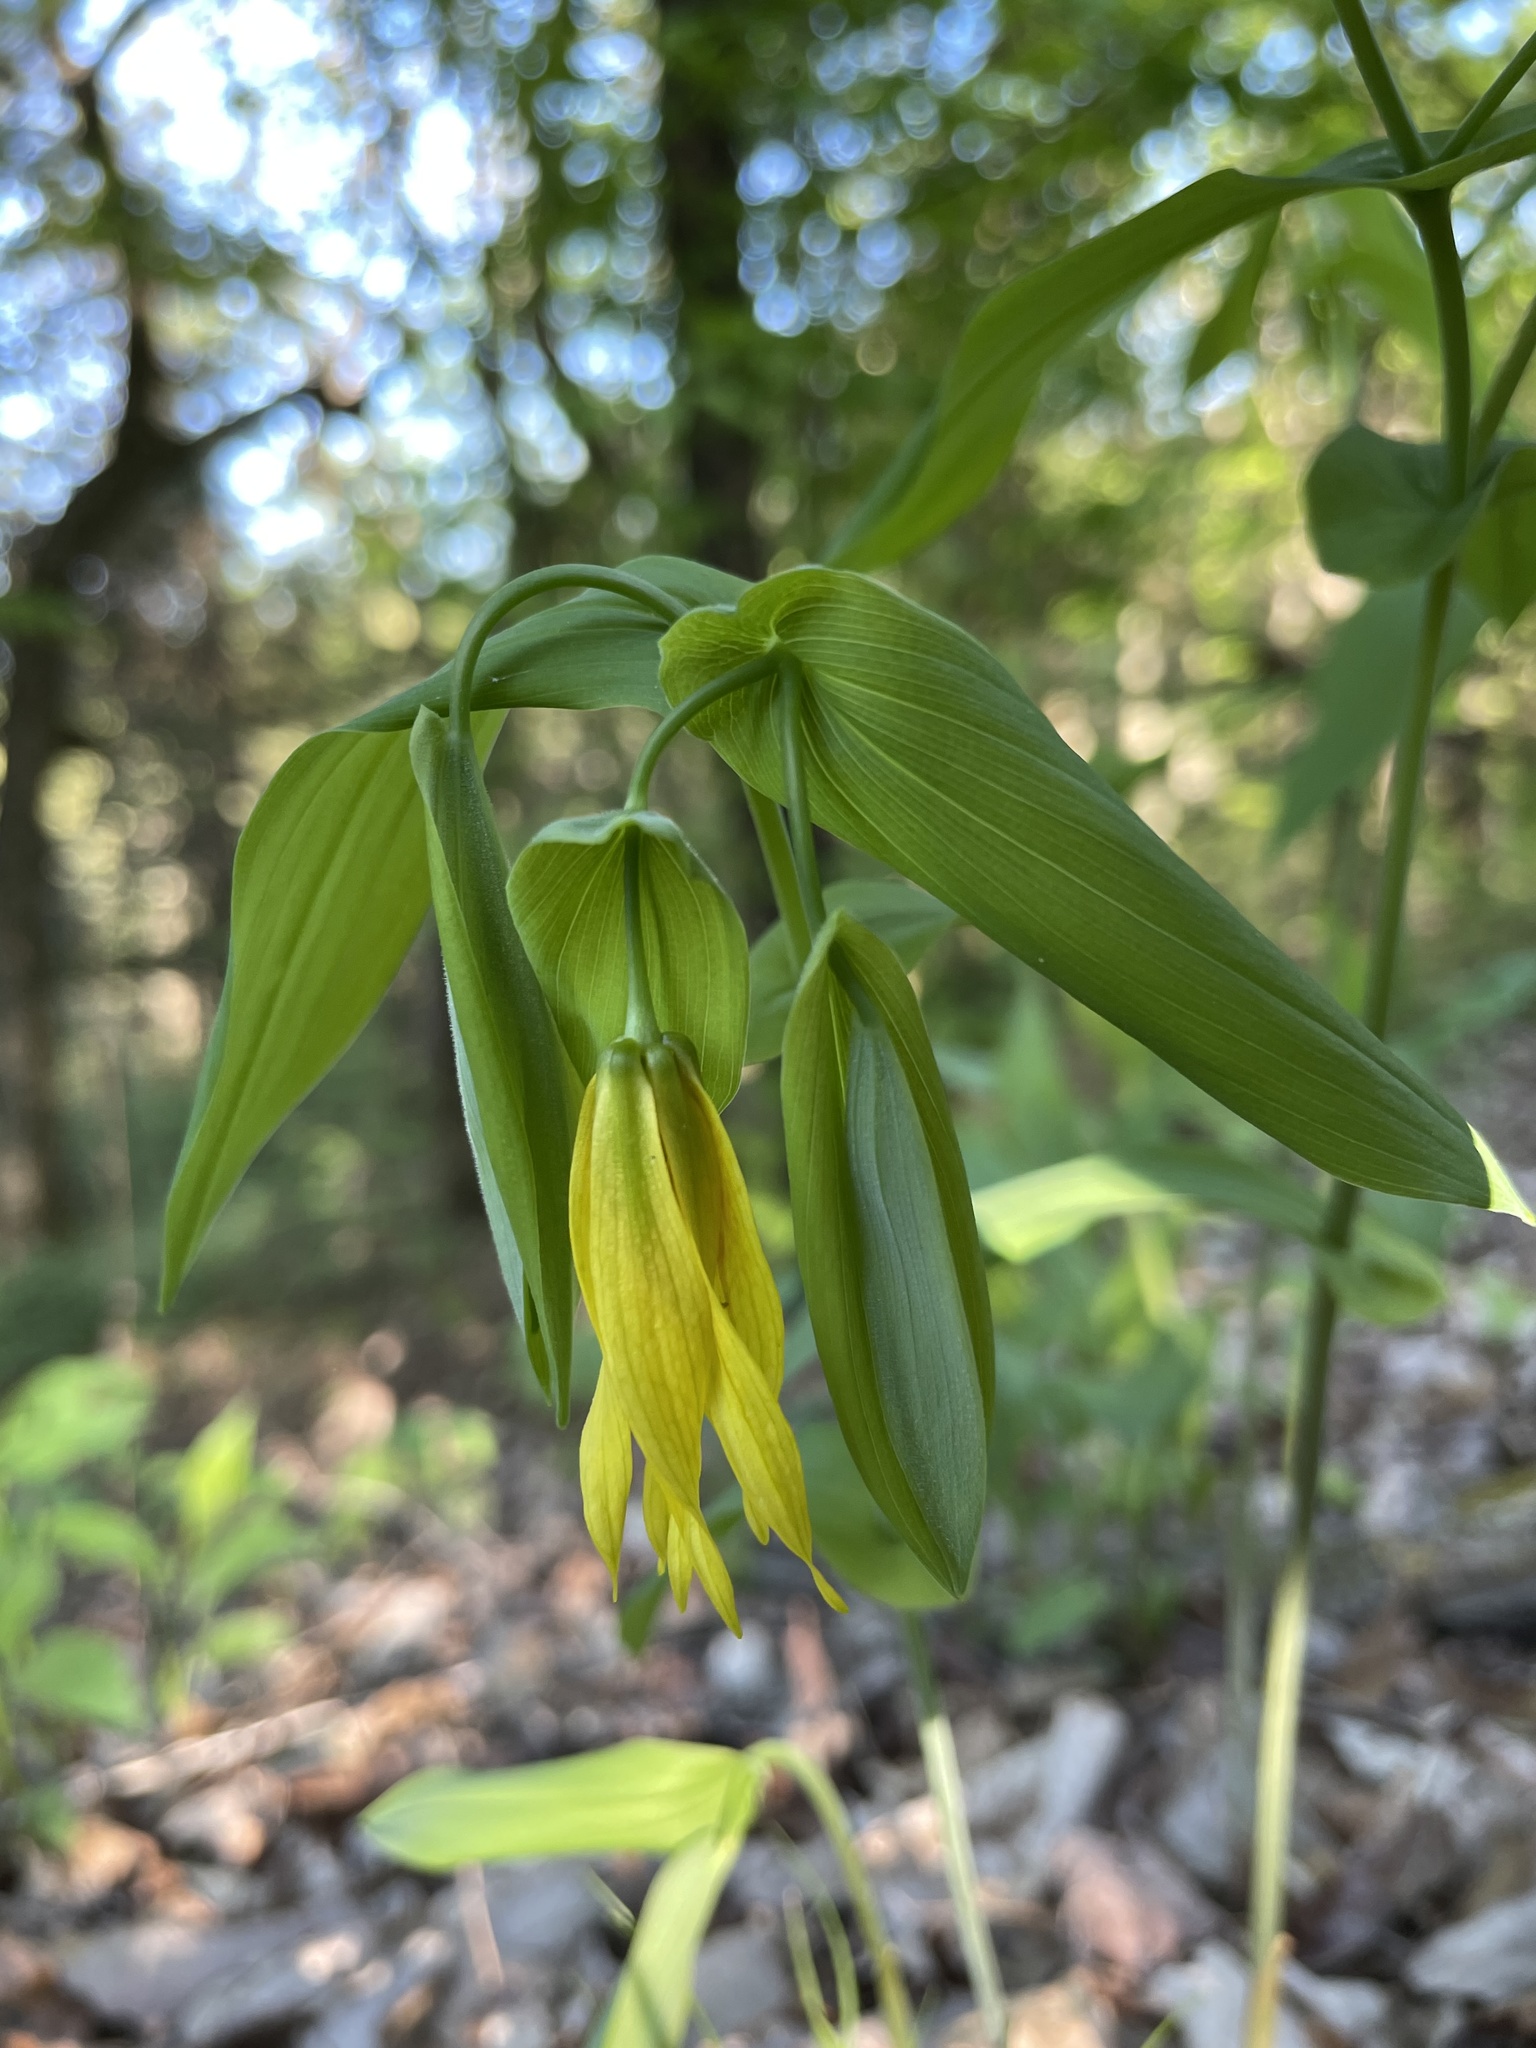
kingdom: Plantae
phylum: Tracheophyta
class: Liliopsida
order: Liliales
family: Colchicaceae
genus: Uvularia
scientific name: Uvularia grandiflora
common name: Bellwort
